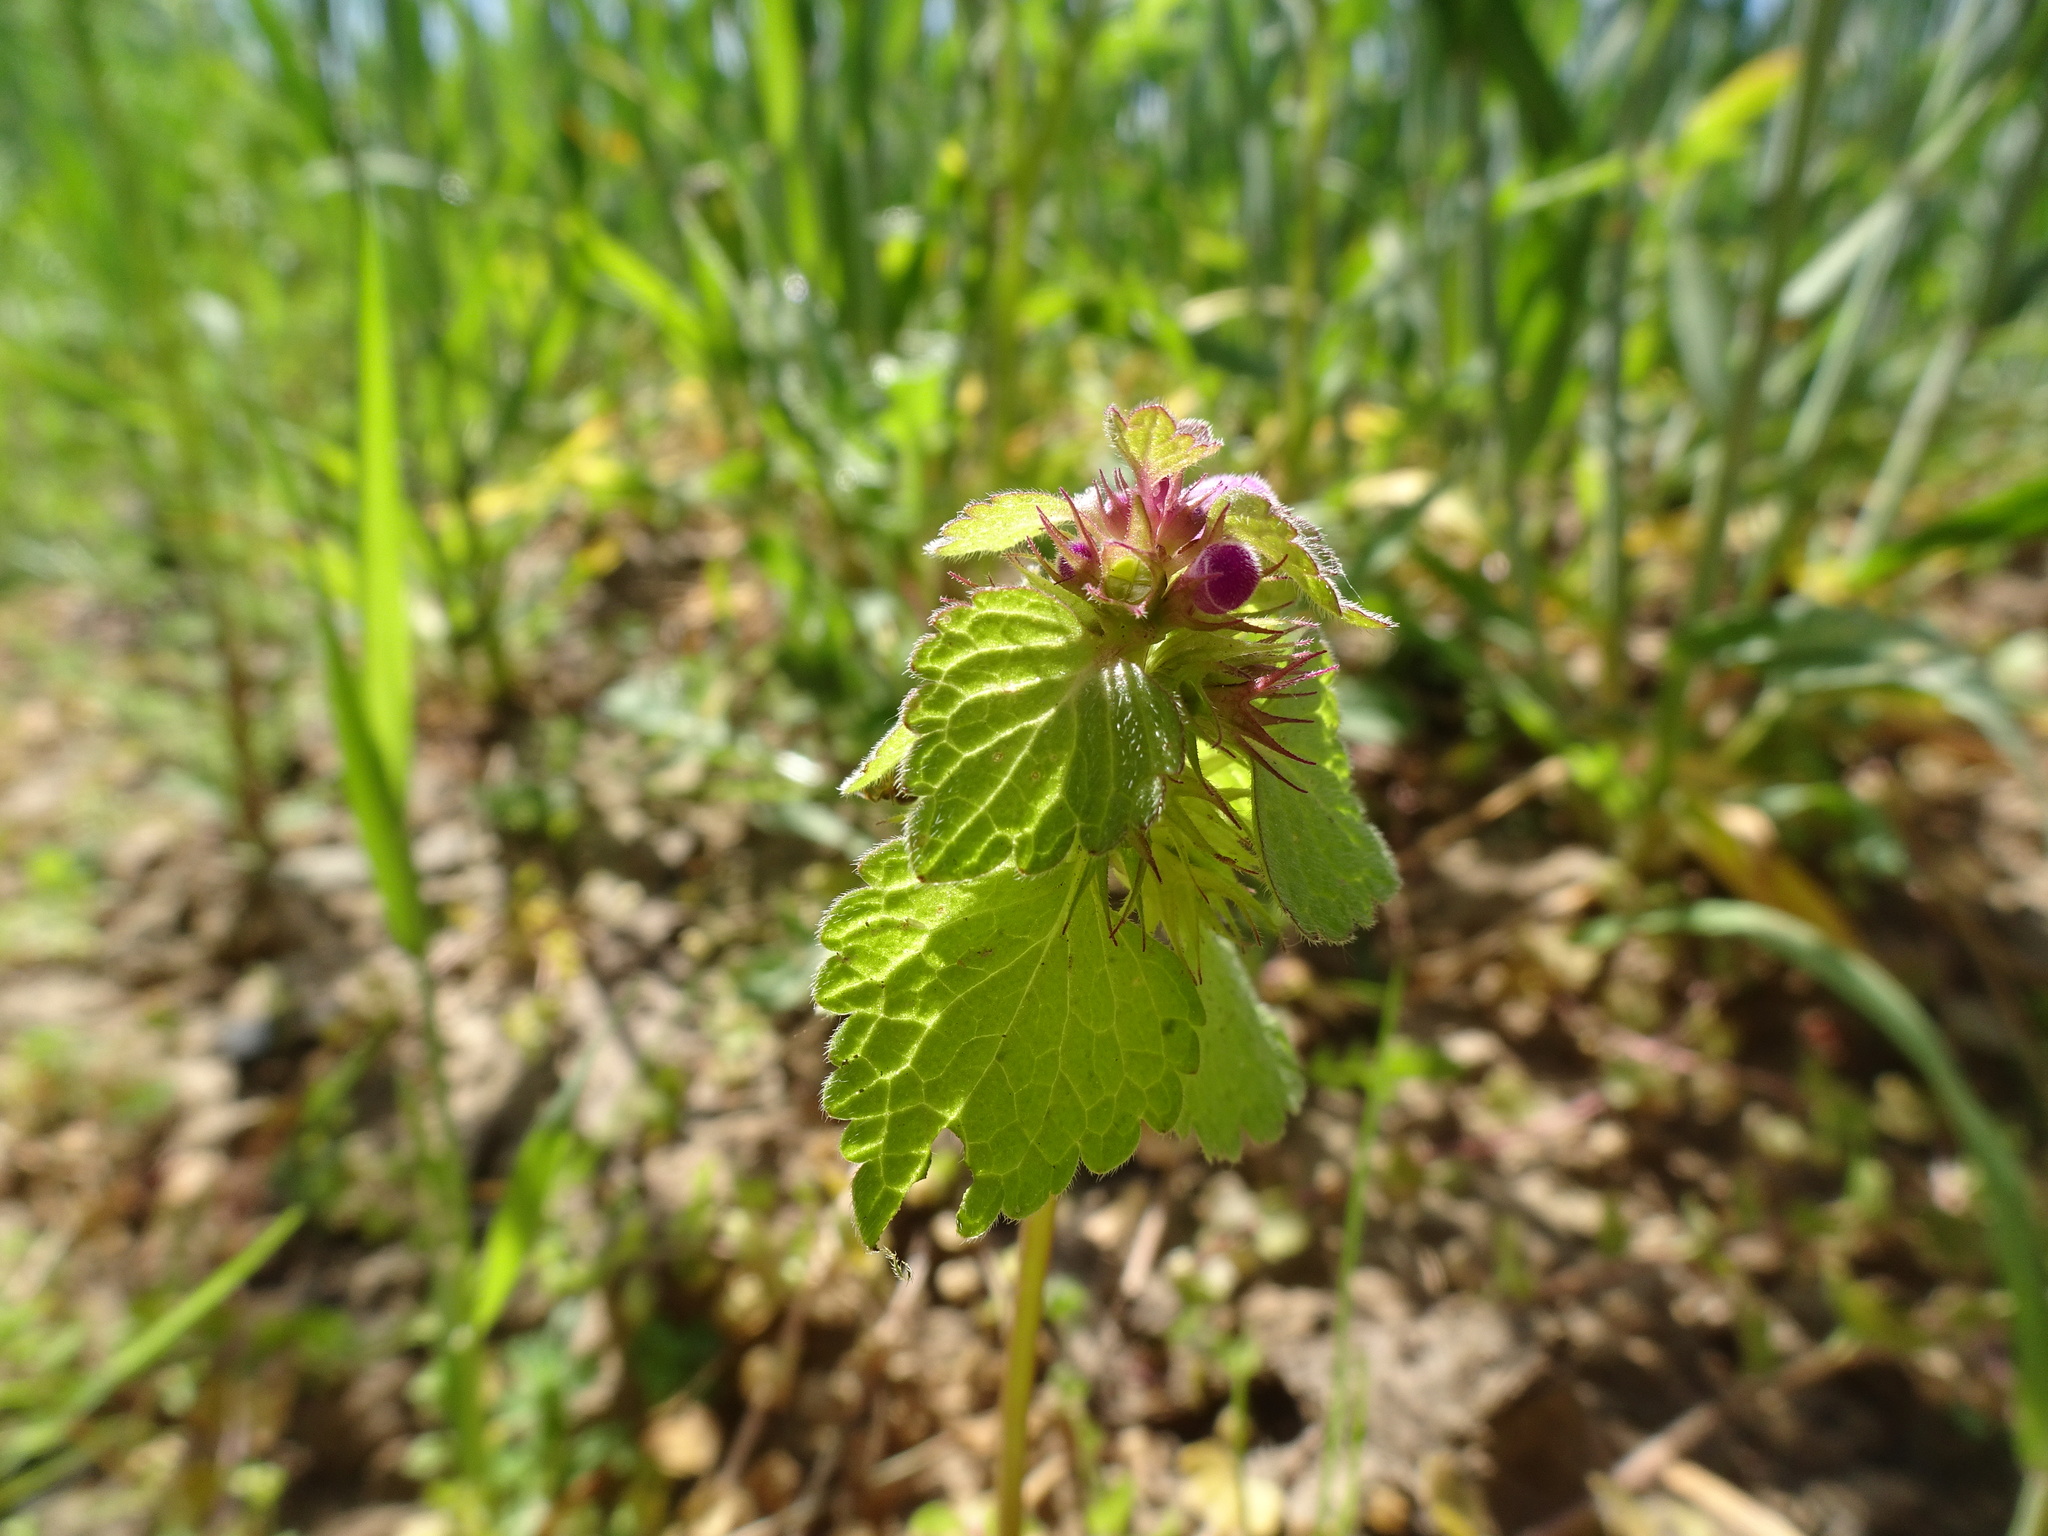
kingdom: Plantae
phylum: Tracheophyta
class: Magnoliopsida
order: Lamiales
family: Lamiaceae
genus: Lamium
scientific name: Lamium purpureum
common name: Red dead-nettle
